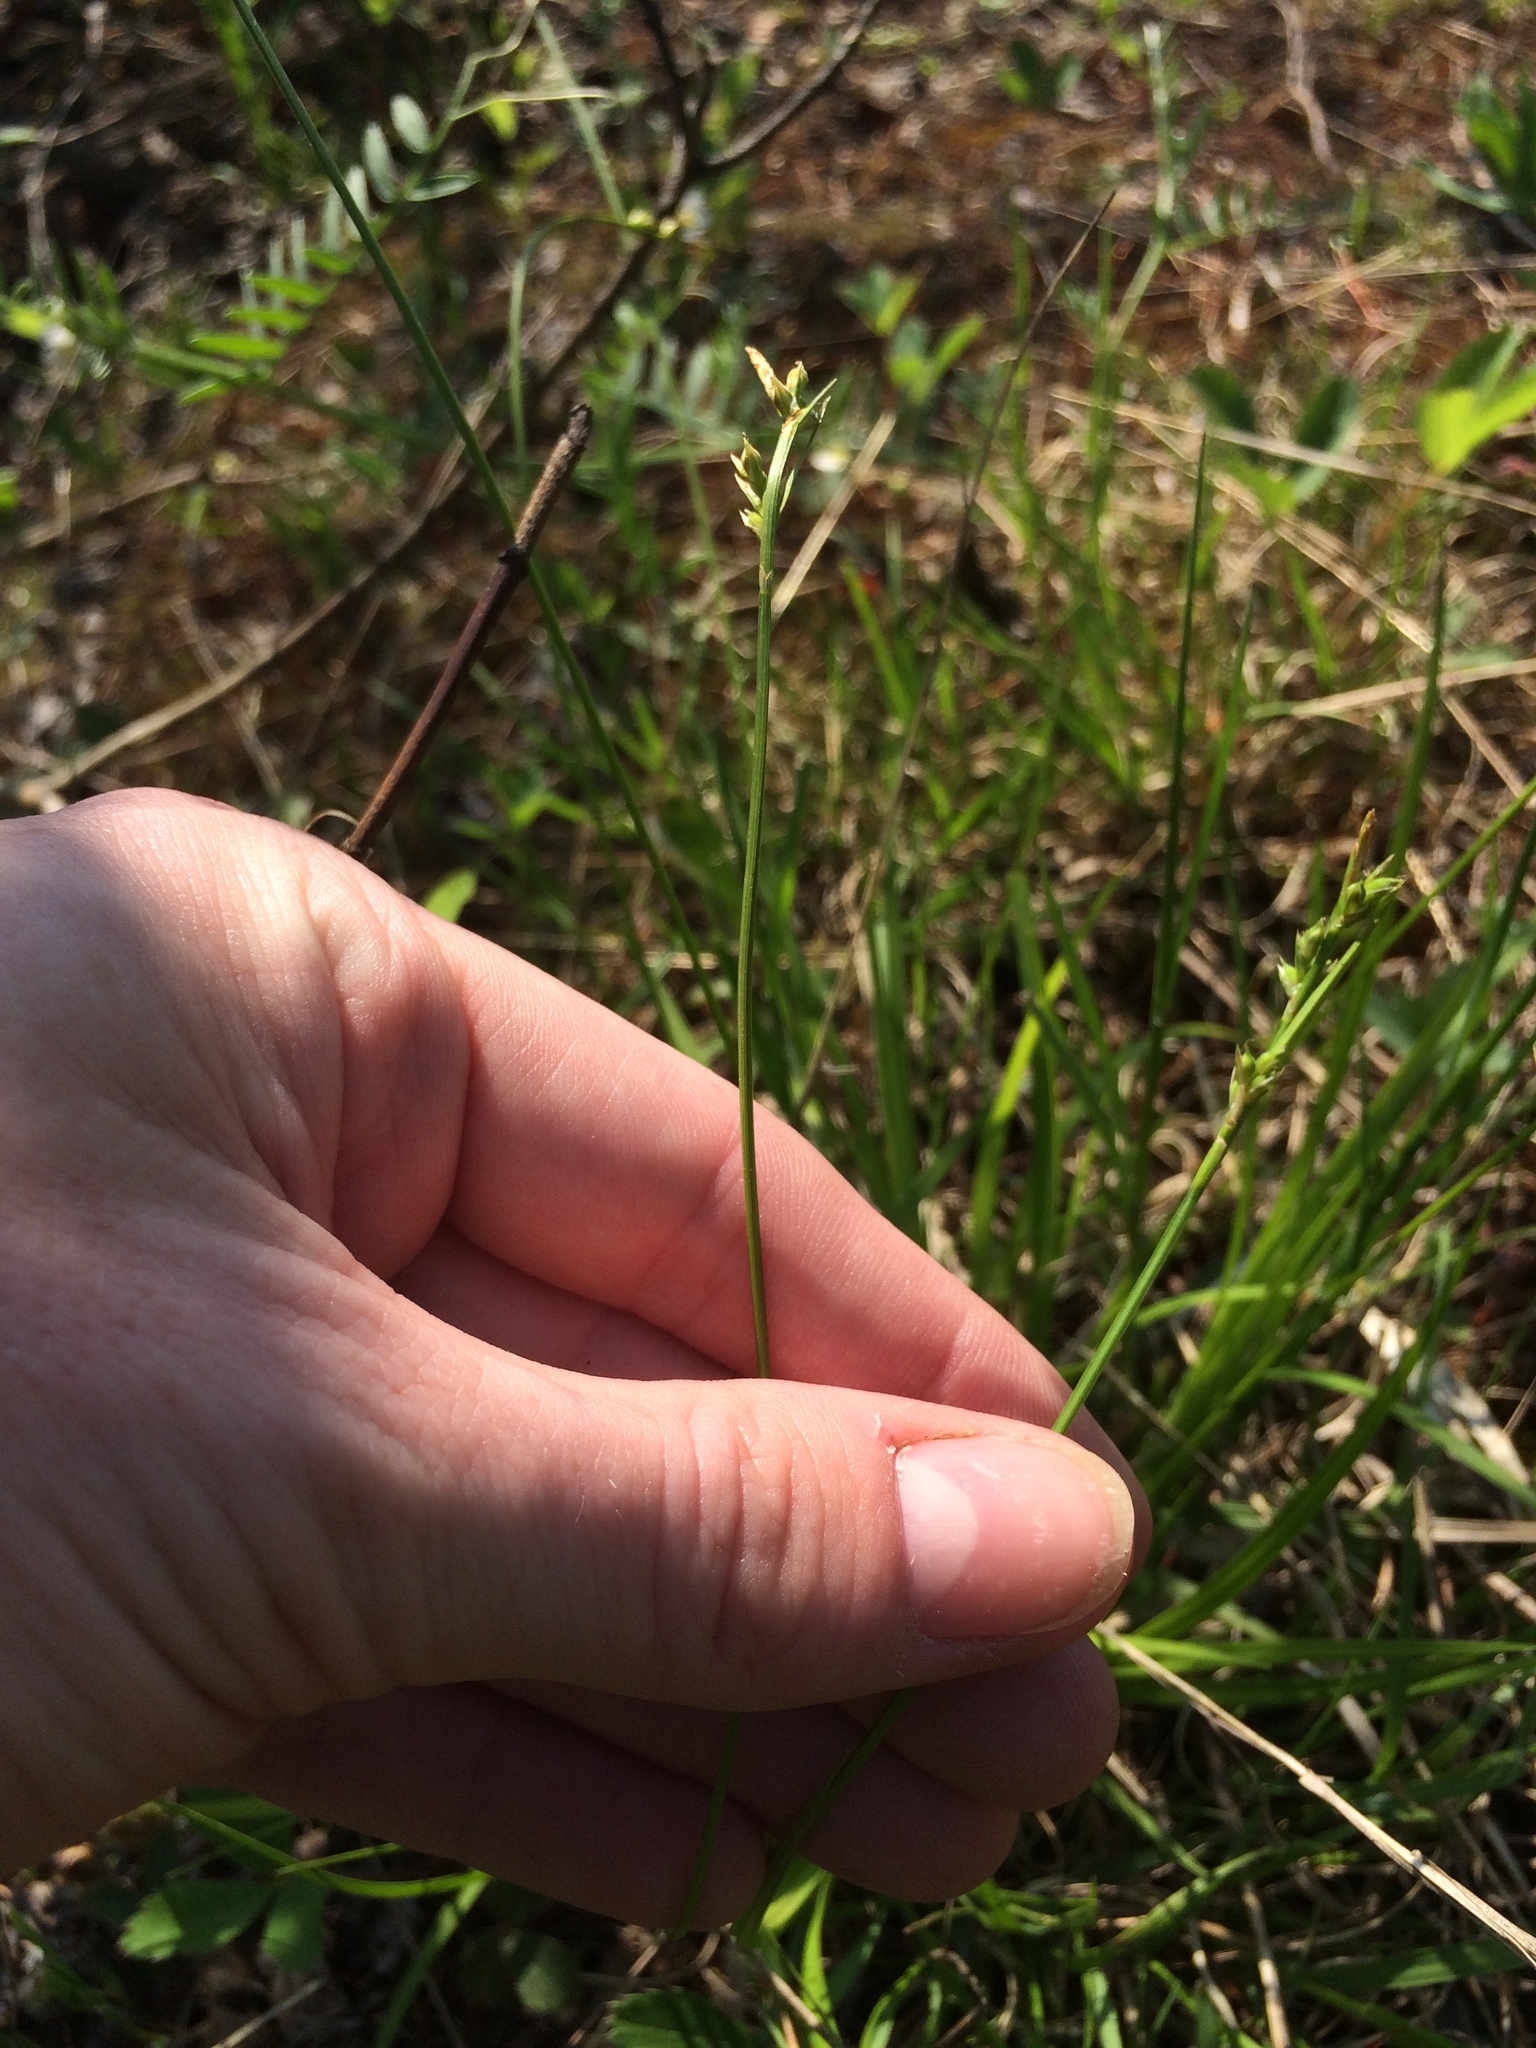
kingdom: Plantae
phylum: Tracheophyta
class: Liliopsida
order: Poales
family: Cyperaceae
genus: Carex
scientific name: Carex communis
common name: Colonial oak sedge
